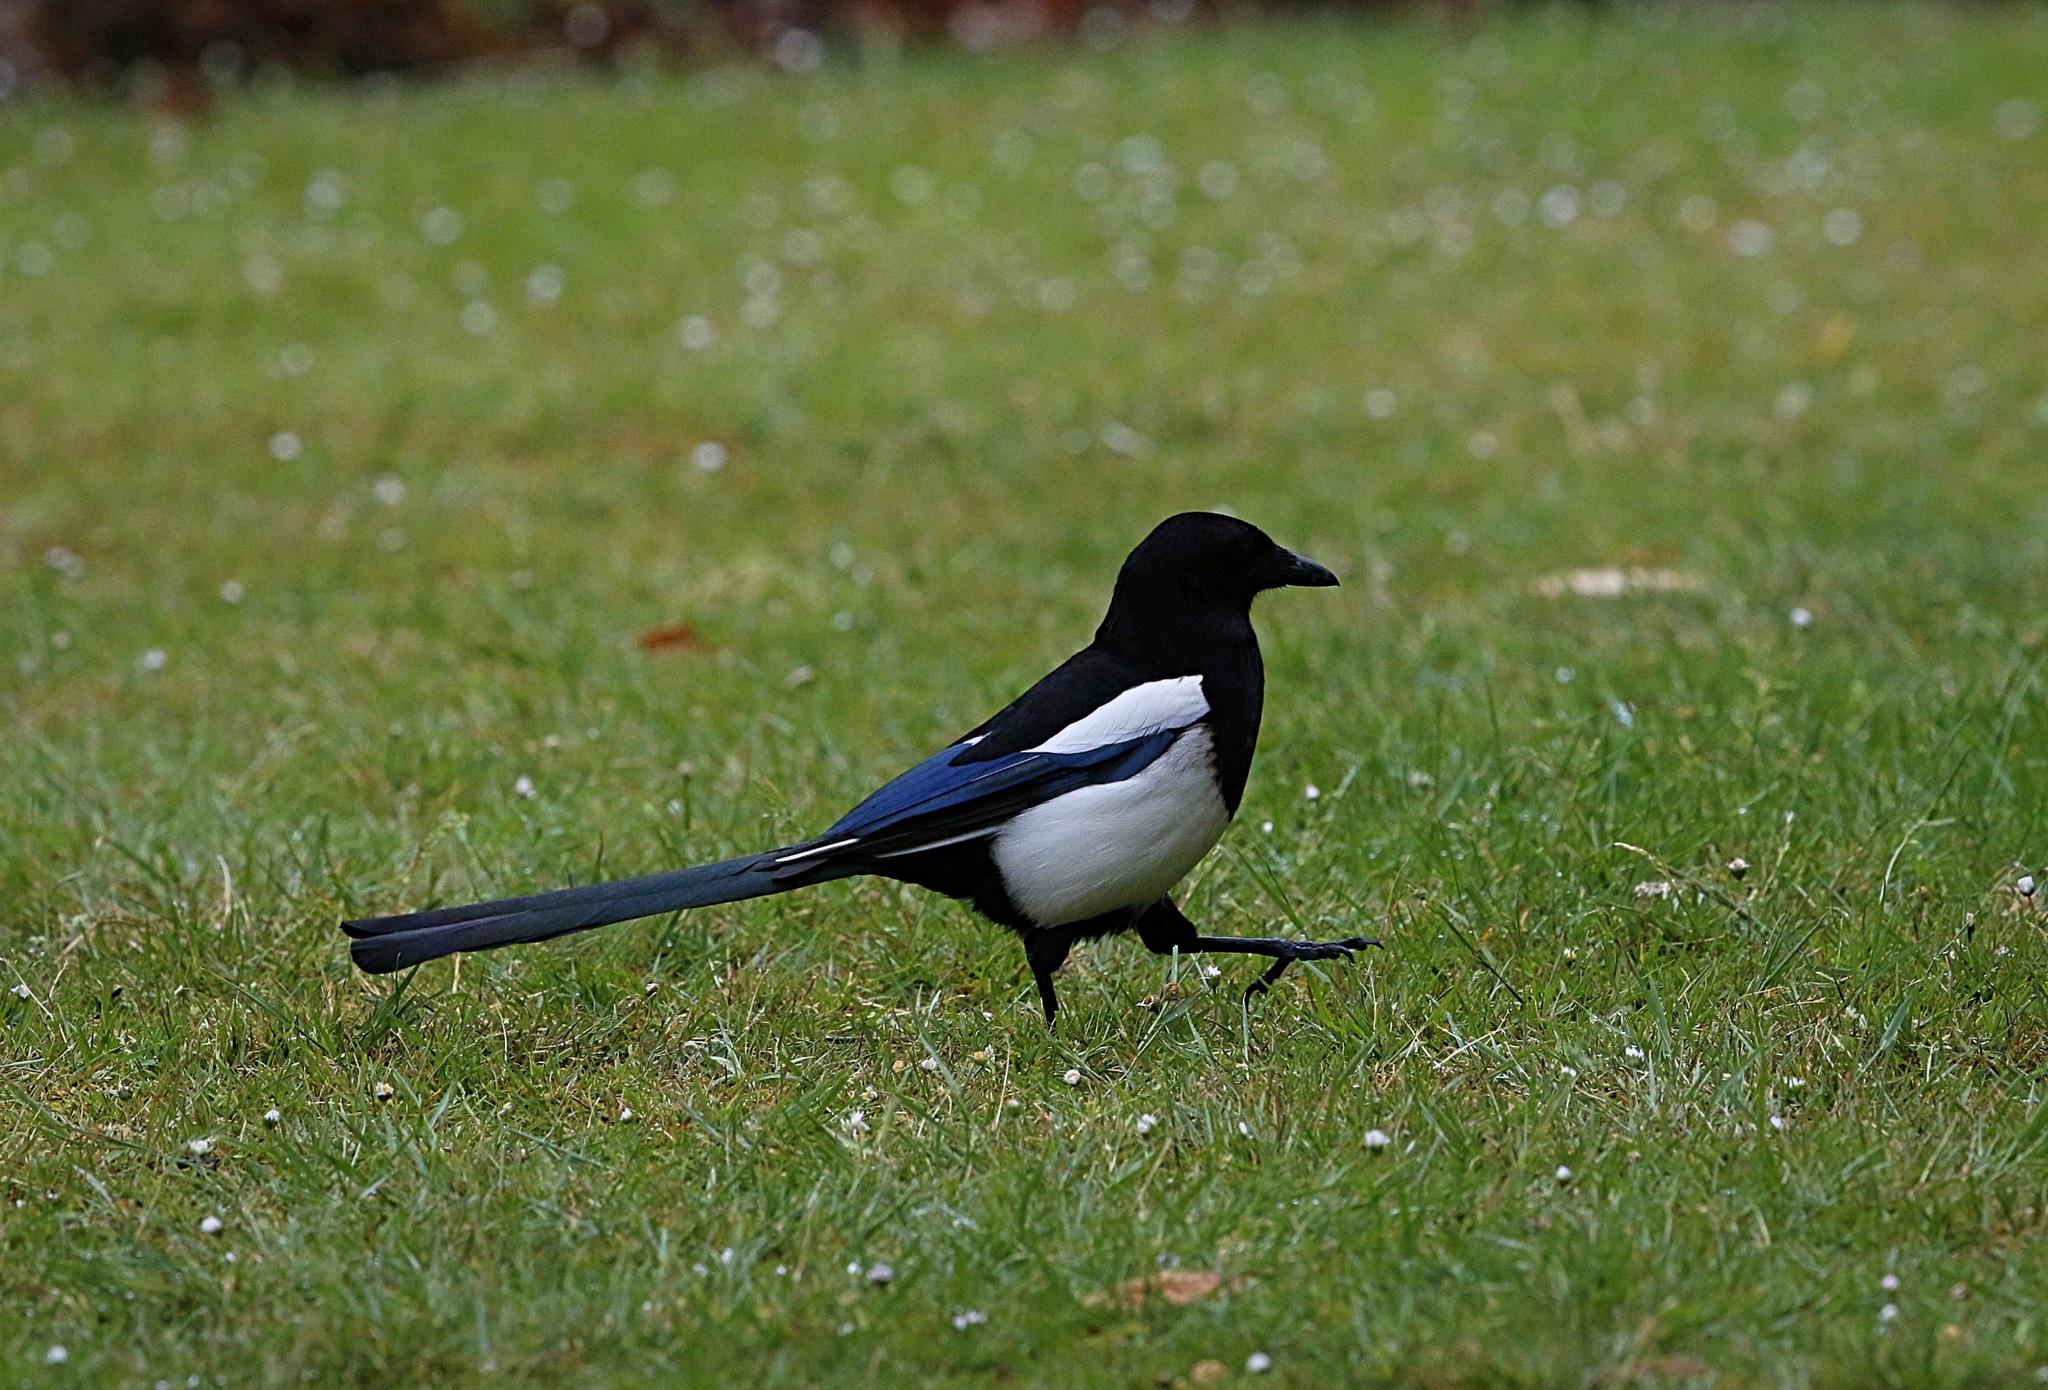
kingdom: Animalia
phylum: Chordata
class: Aves
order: Passeriformes
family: Corvidae
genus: Pica
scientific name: Pica pica
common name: Eurasian magpie
